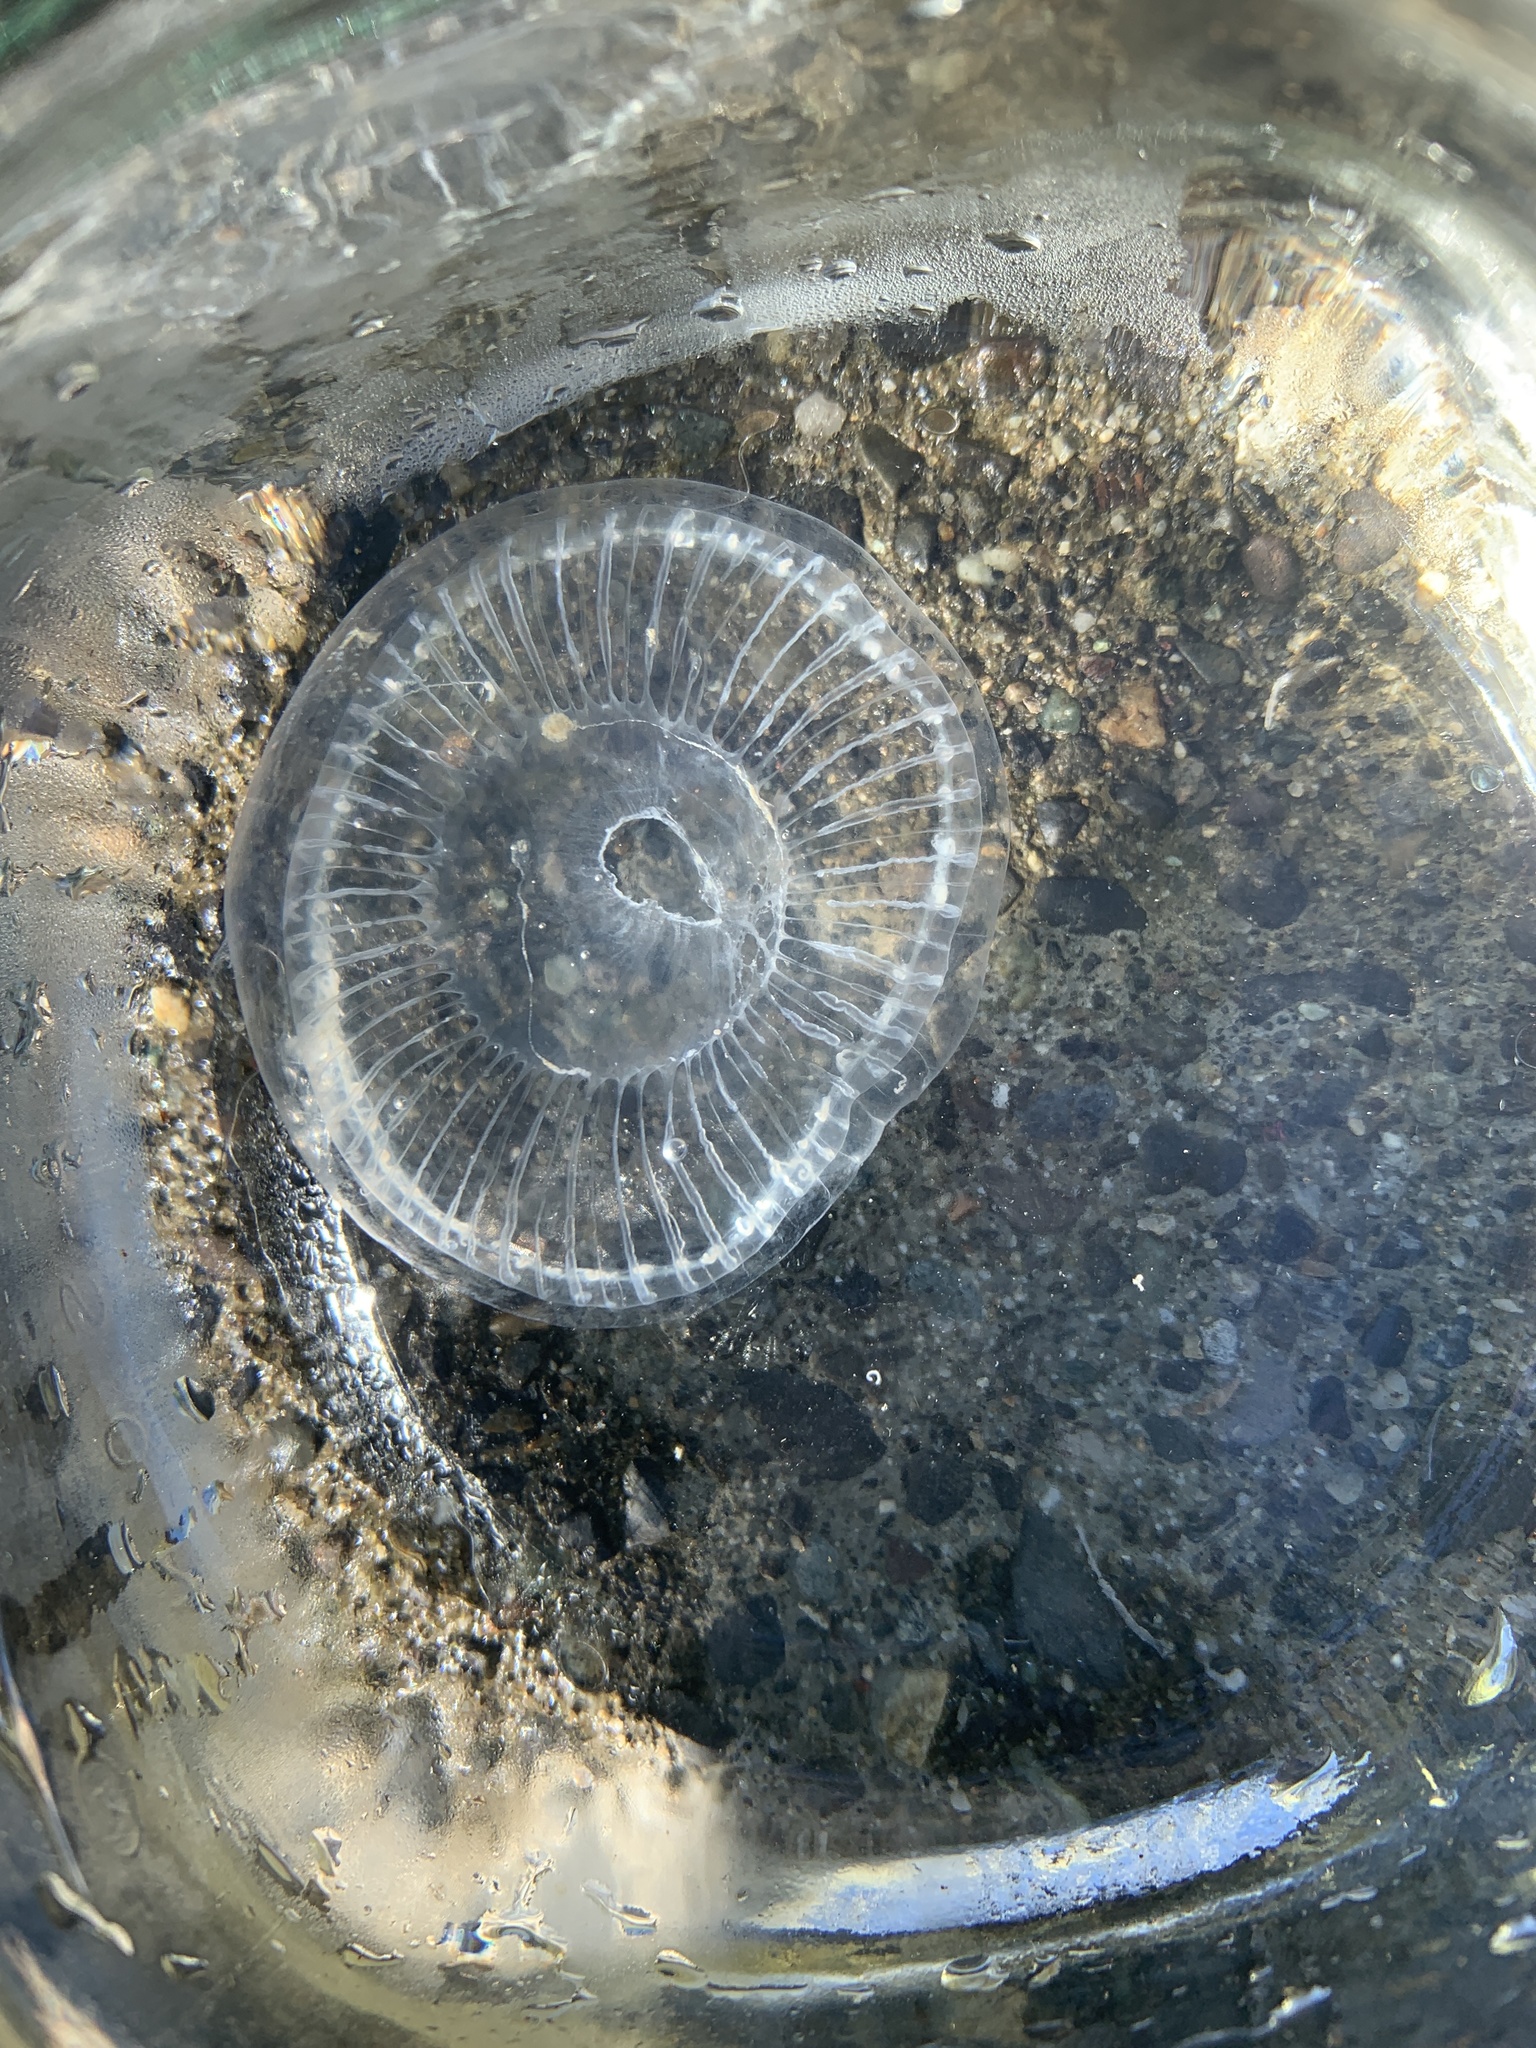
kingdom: Animalia
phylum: Cnidaria
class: Hydrozoa
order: Leptothecata
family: Aequoreidae
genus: Aequorea
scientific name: Aequorea victoria
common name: Water jellyfish
